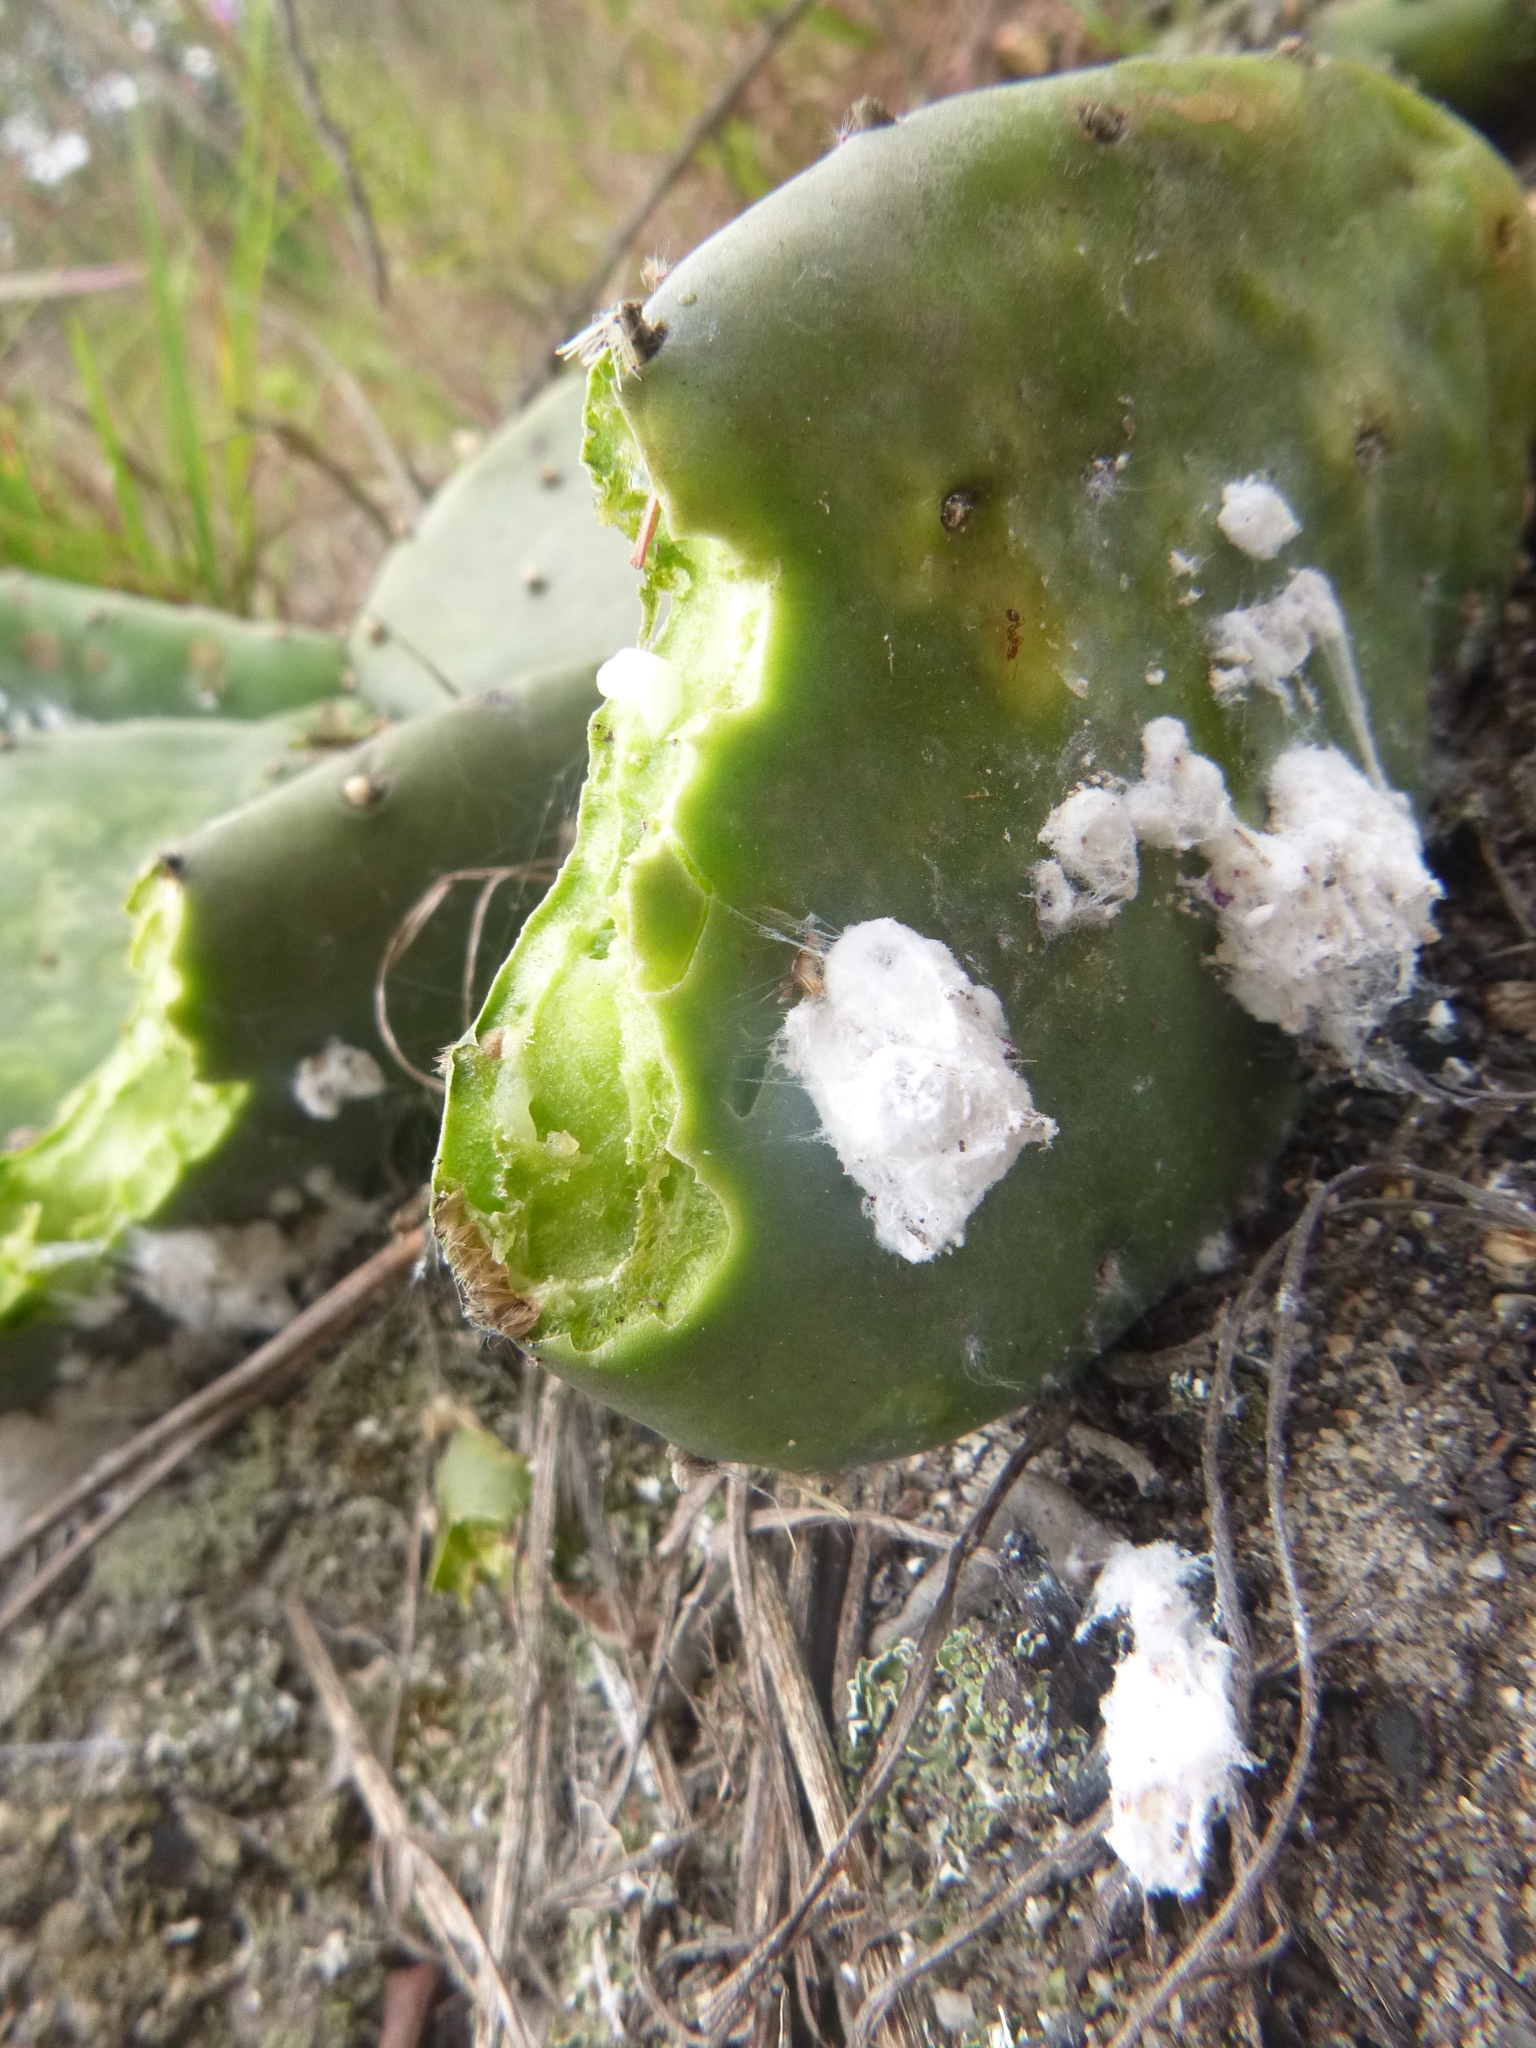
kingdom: Plantae
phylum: Tracheophyta
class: Magnoliopsida
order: Caryophyllales
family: Cactaceae
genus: Opuntia
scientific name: Opuntia humifusa
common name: Eastern prickly-pear
